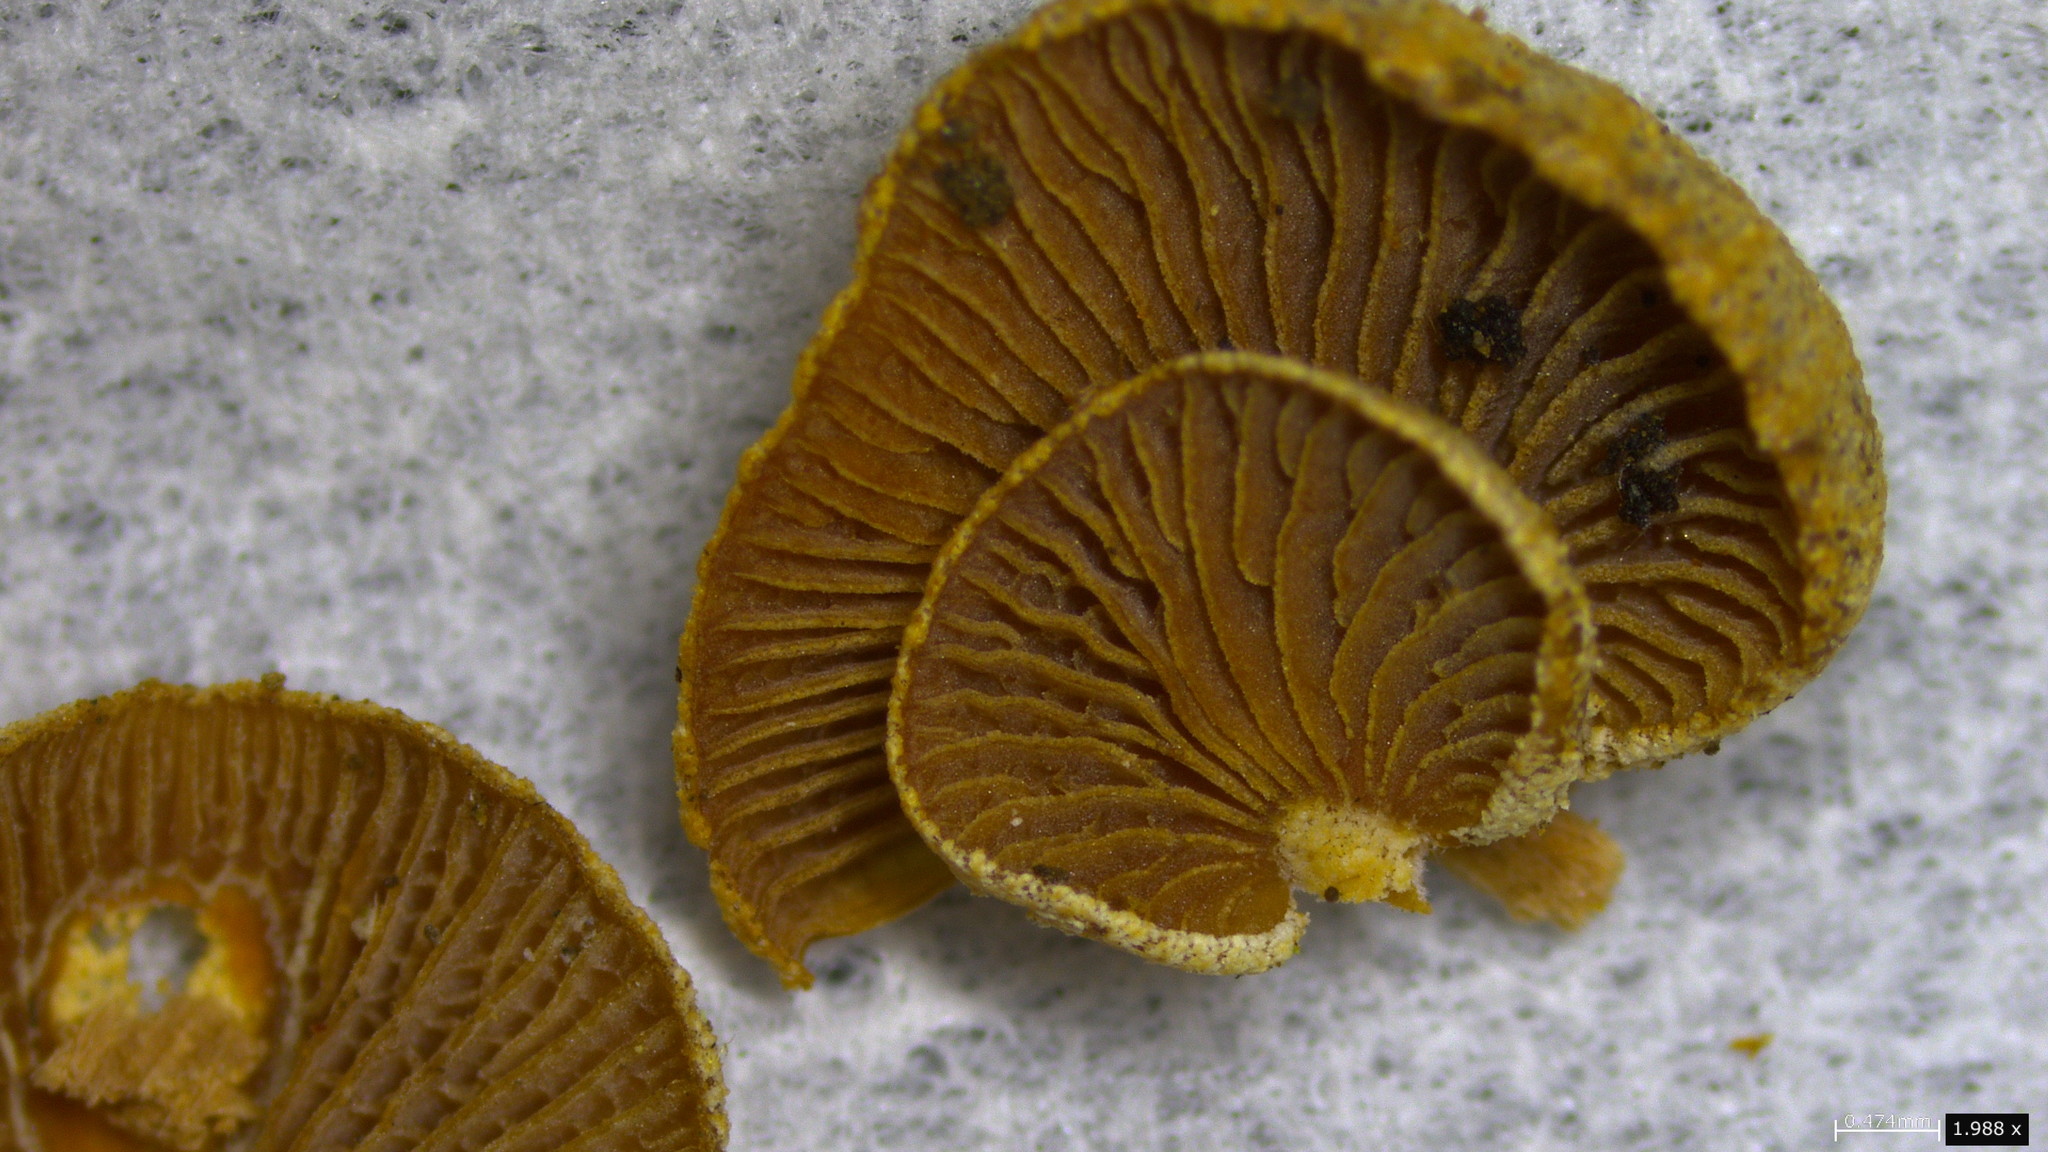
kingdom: Fungi
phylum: Basidiomycota
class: Agaricomycetes
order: Agaricales
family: Mycenaceae
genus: Panellus
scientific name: Panellus stipticus
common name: Bitter oysterling
